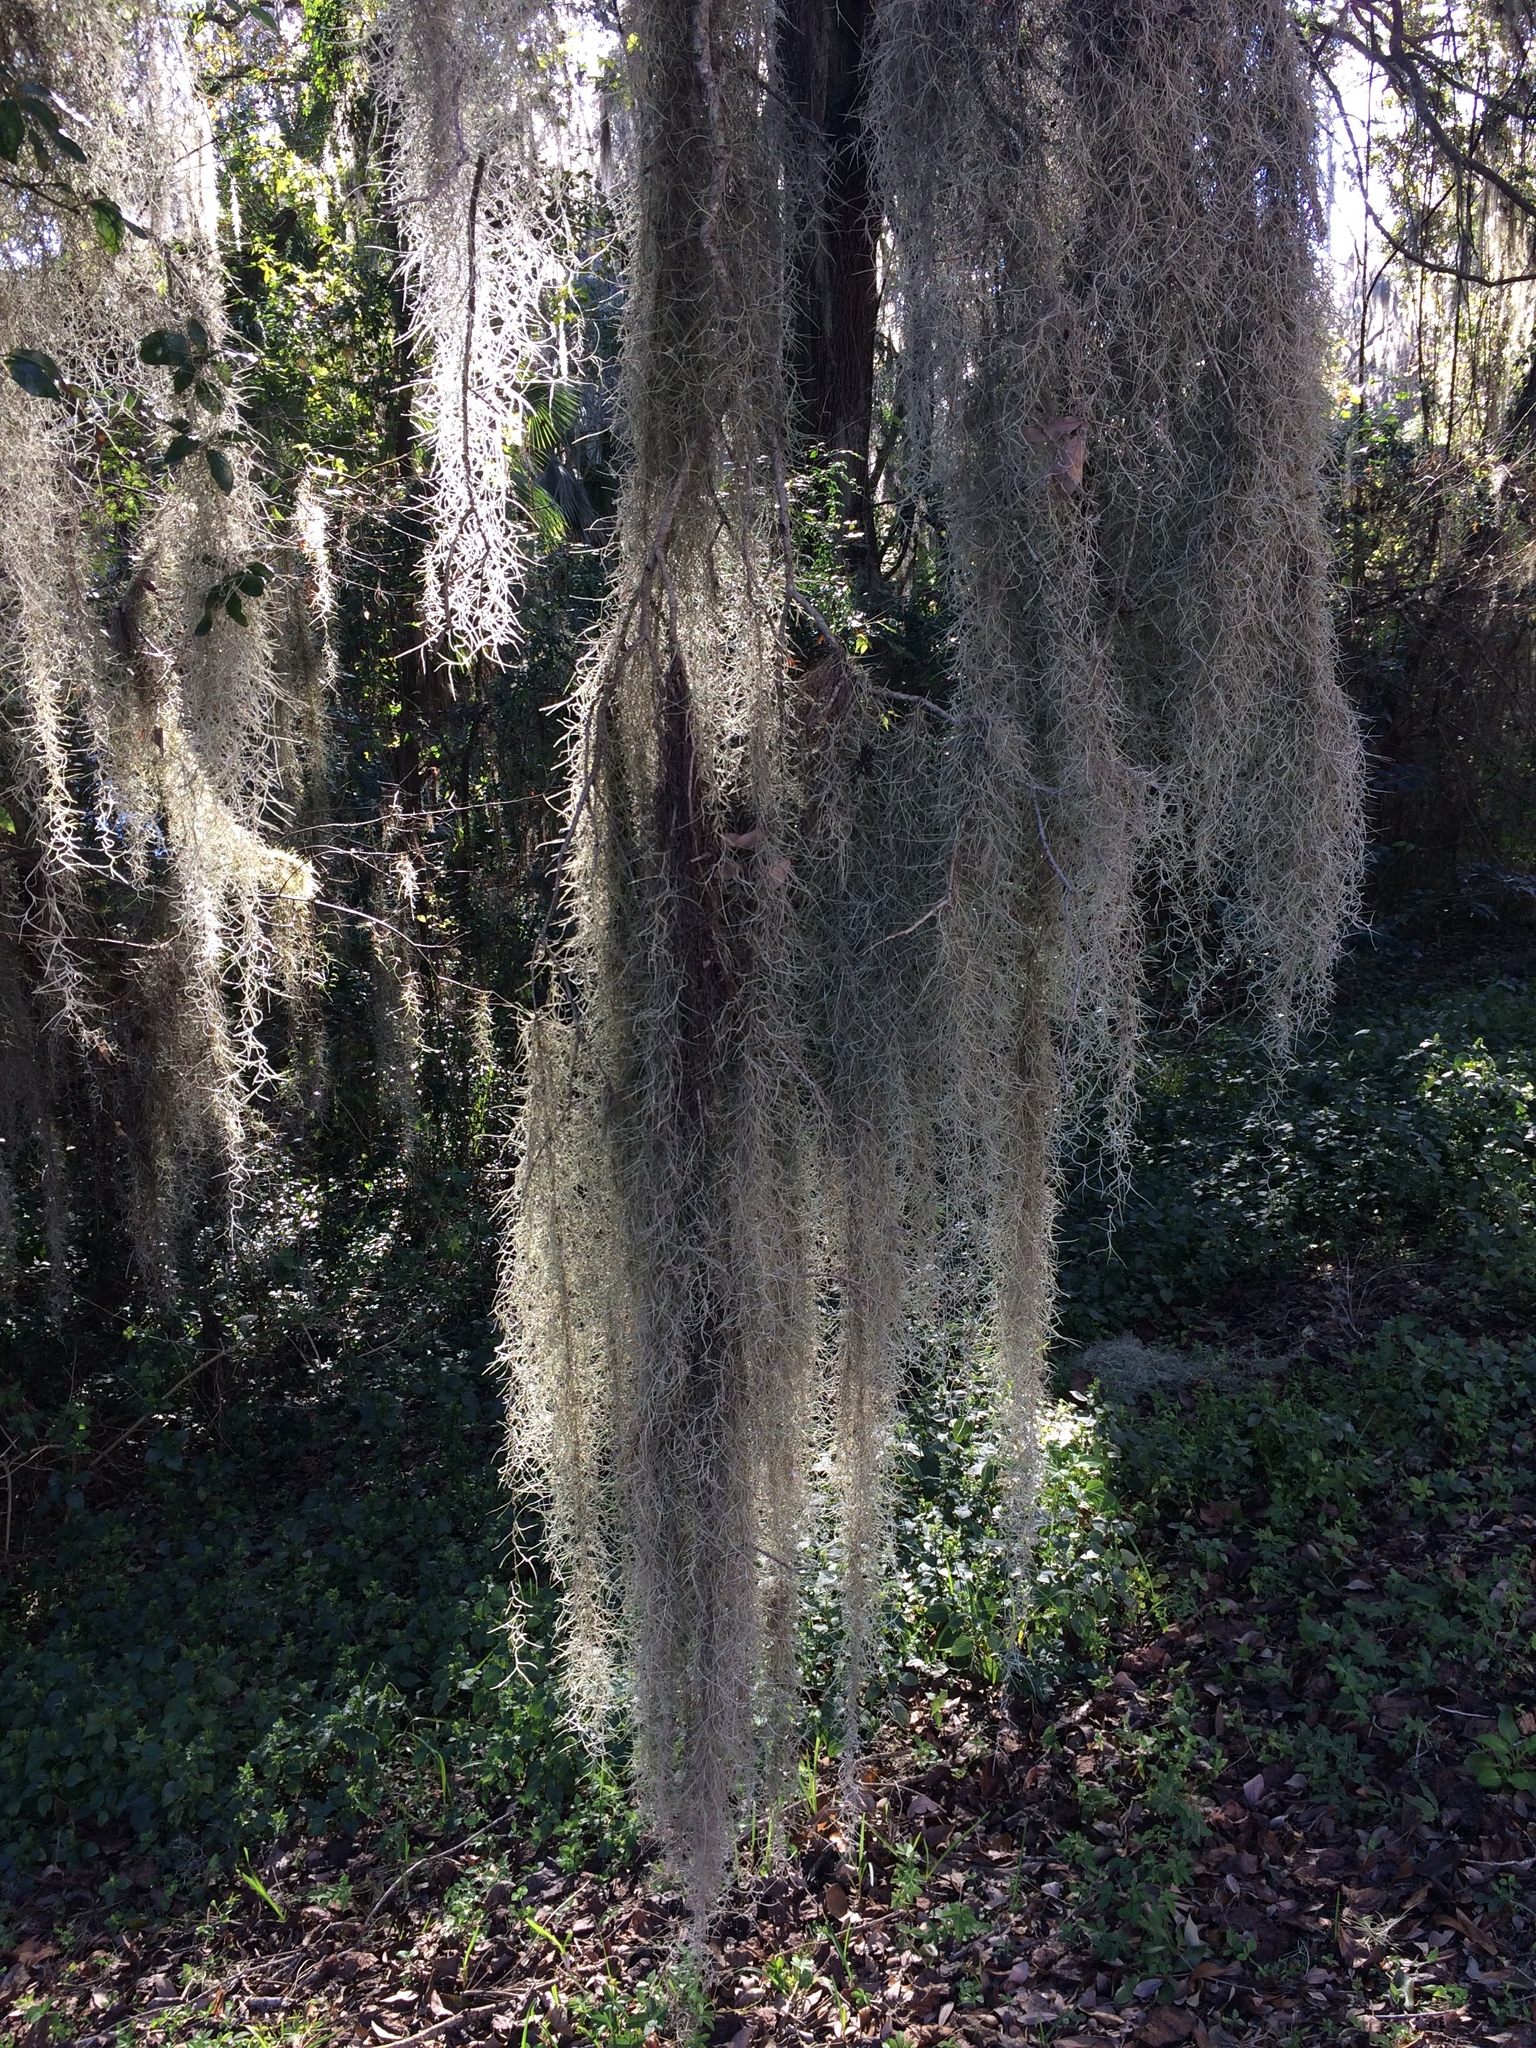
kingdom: Plantae
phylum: Tracheophyta
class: Liliopsida
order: Poales
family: Bromeliaceae
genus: Tillandsia
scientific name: Tillandsia usneoides
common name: Spanish moss
